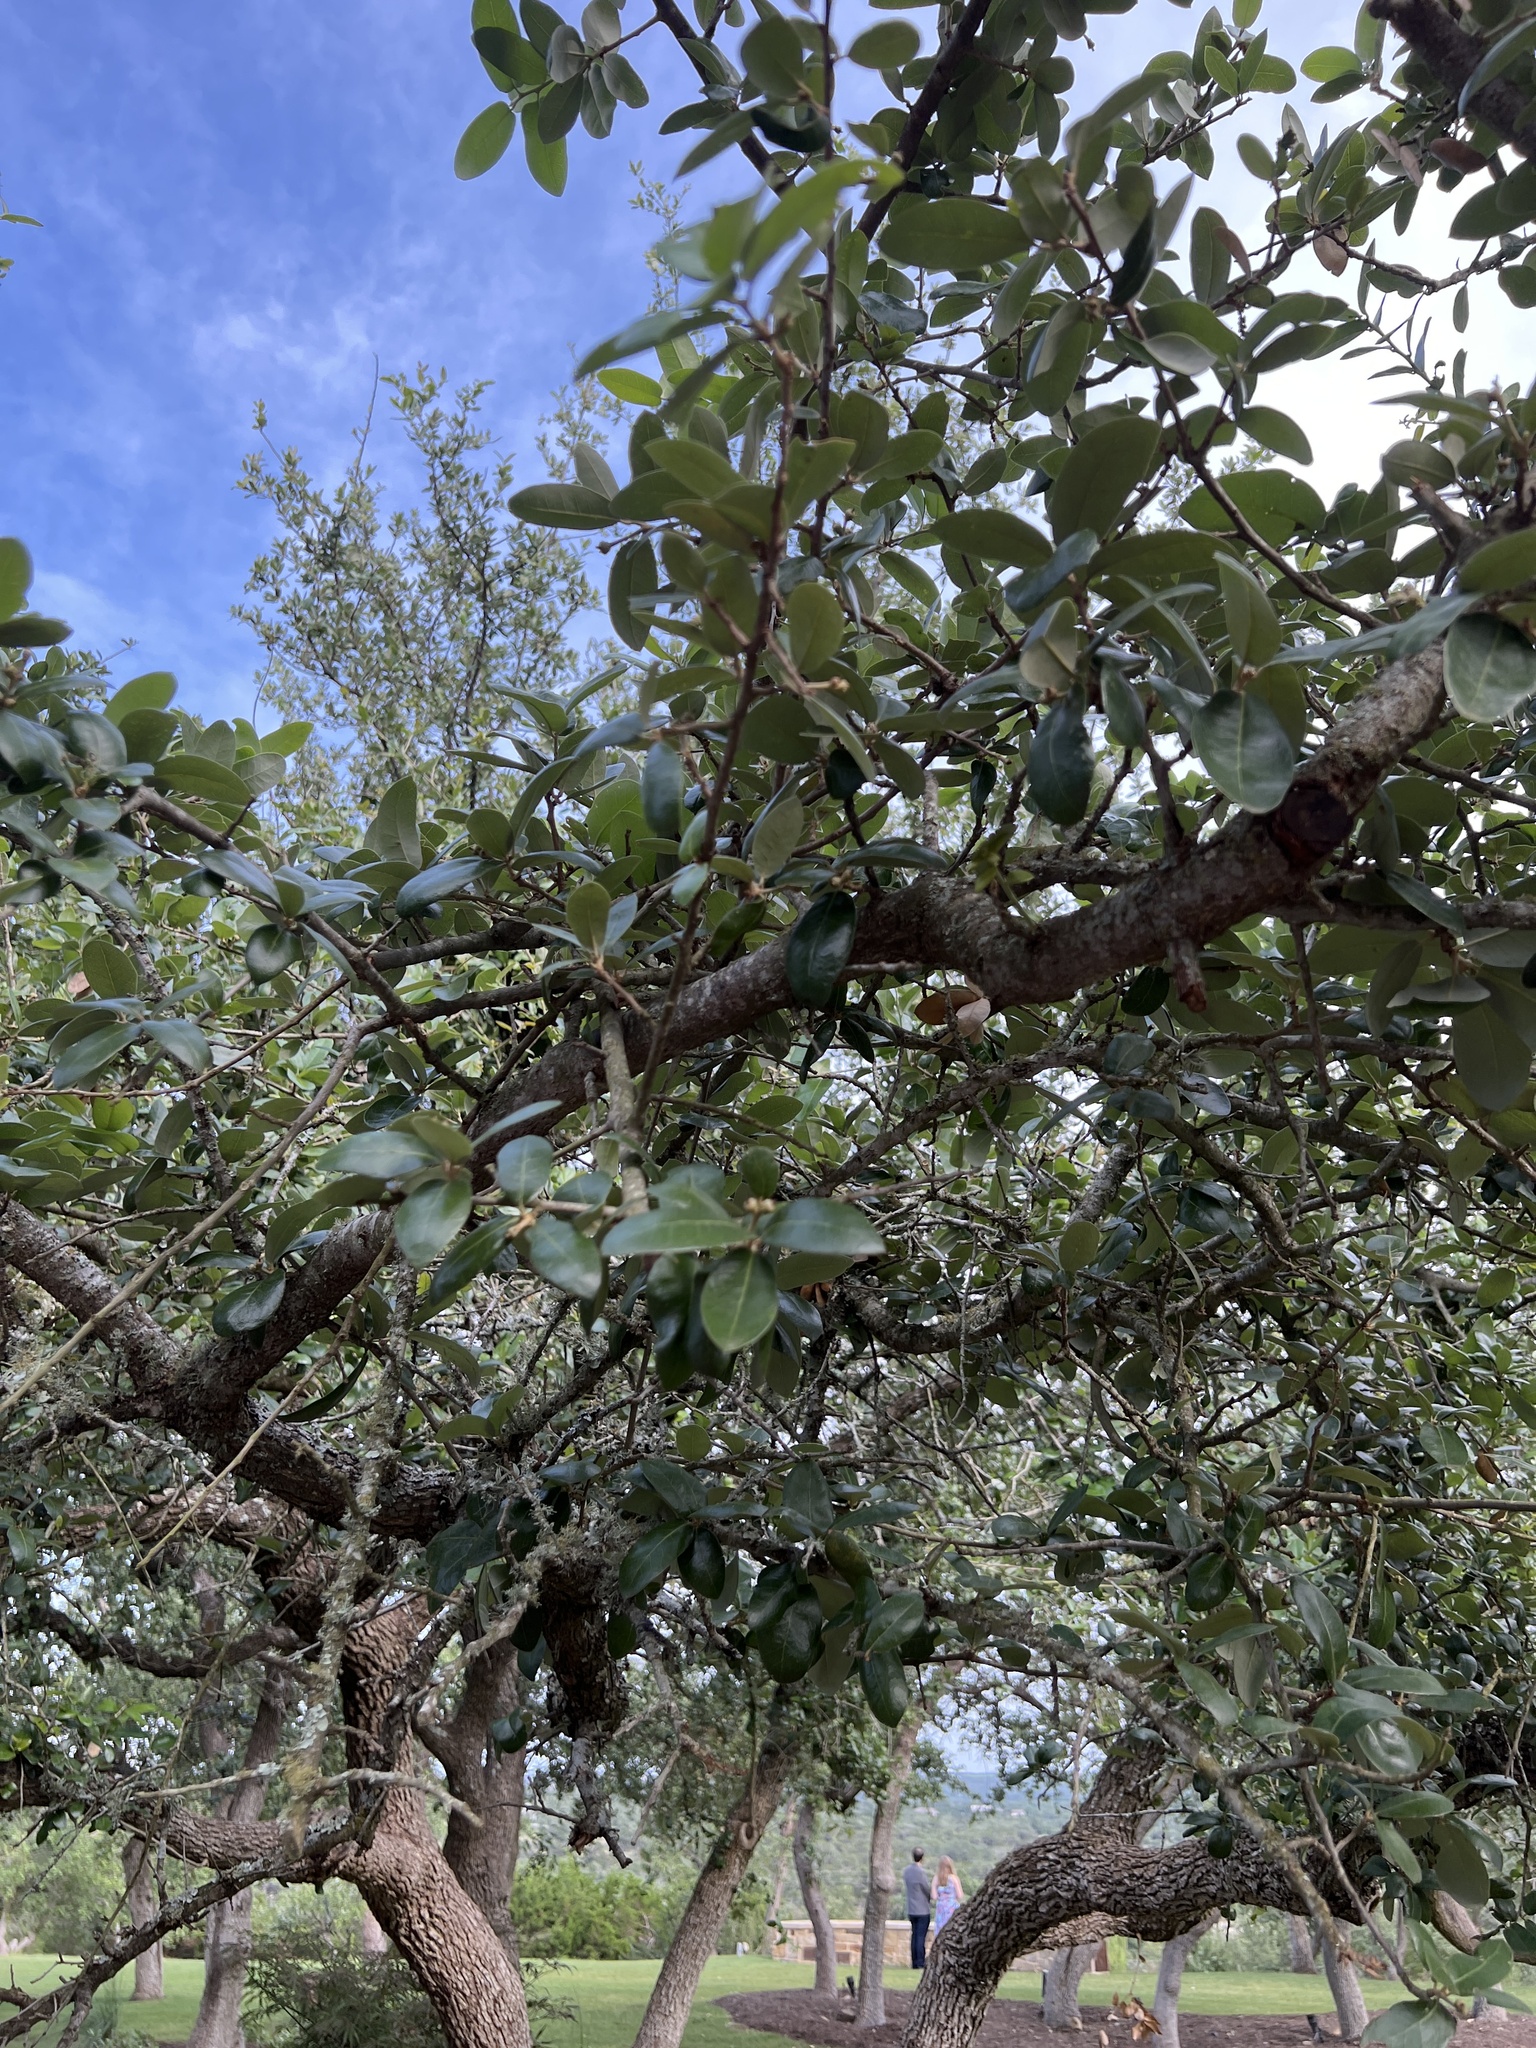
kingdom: Plantae
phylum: Tracheophyta
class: Magnoliopsida
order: Fagales
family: Fagaceae
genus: Quercus
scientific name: Quercus fusiformis
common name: Texas live oak
